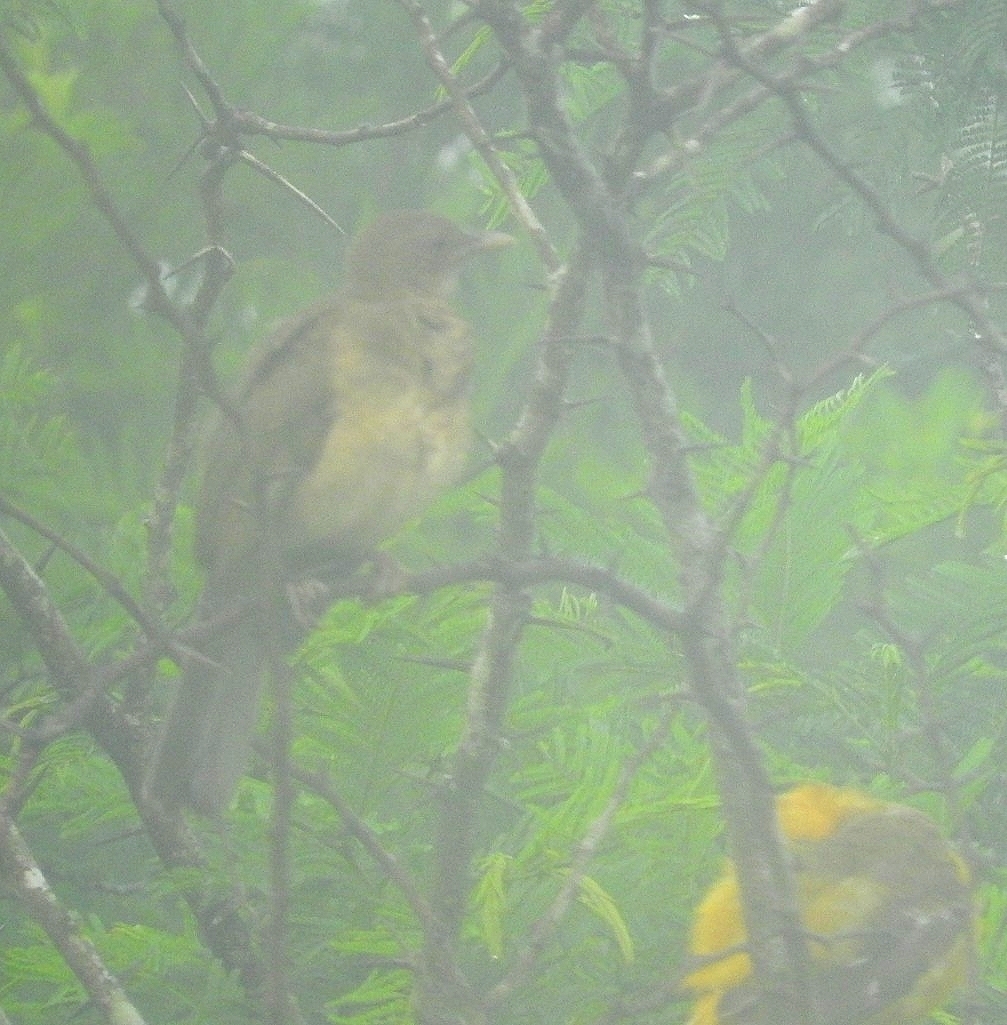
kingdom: Animalia
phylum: Chordata
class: Aves
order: Passeriformes
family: Turdidae
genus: Turdus
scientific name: Turdus grayi
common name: Clay-colored thrush
